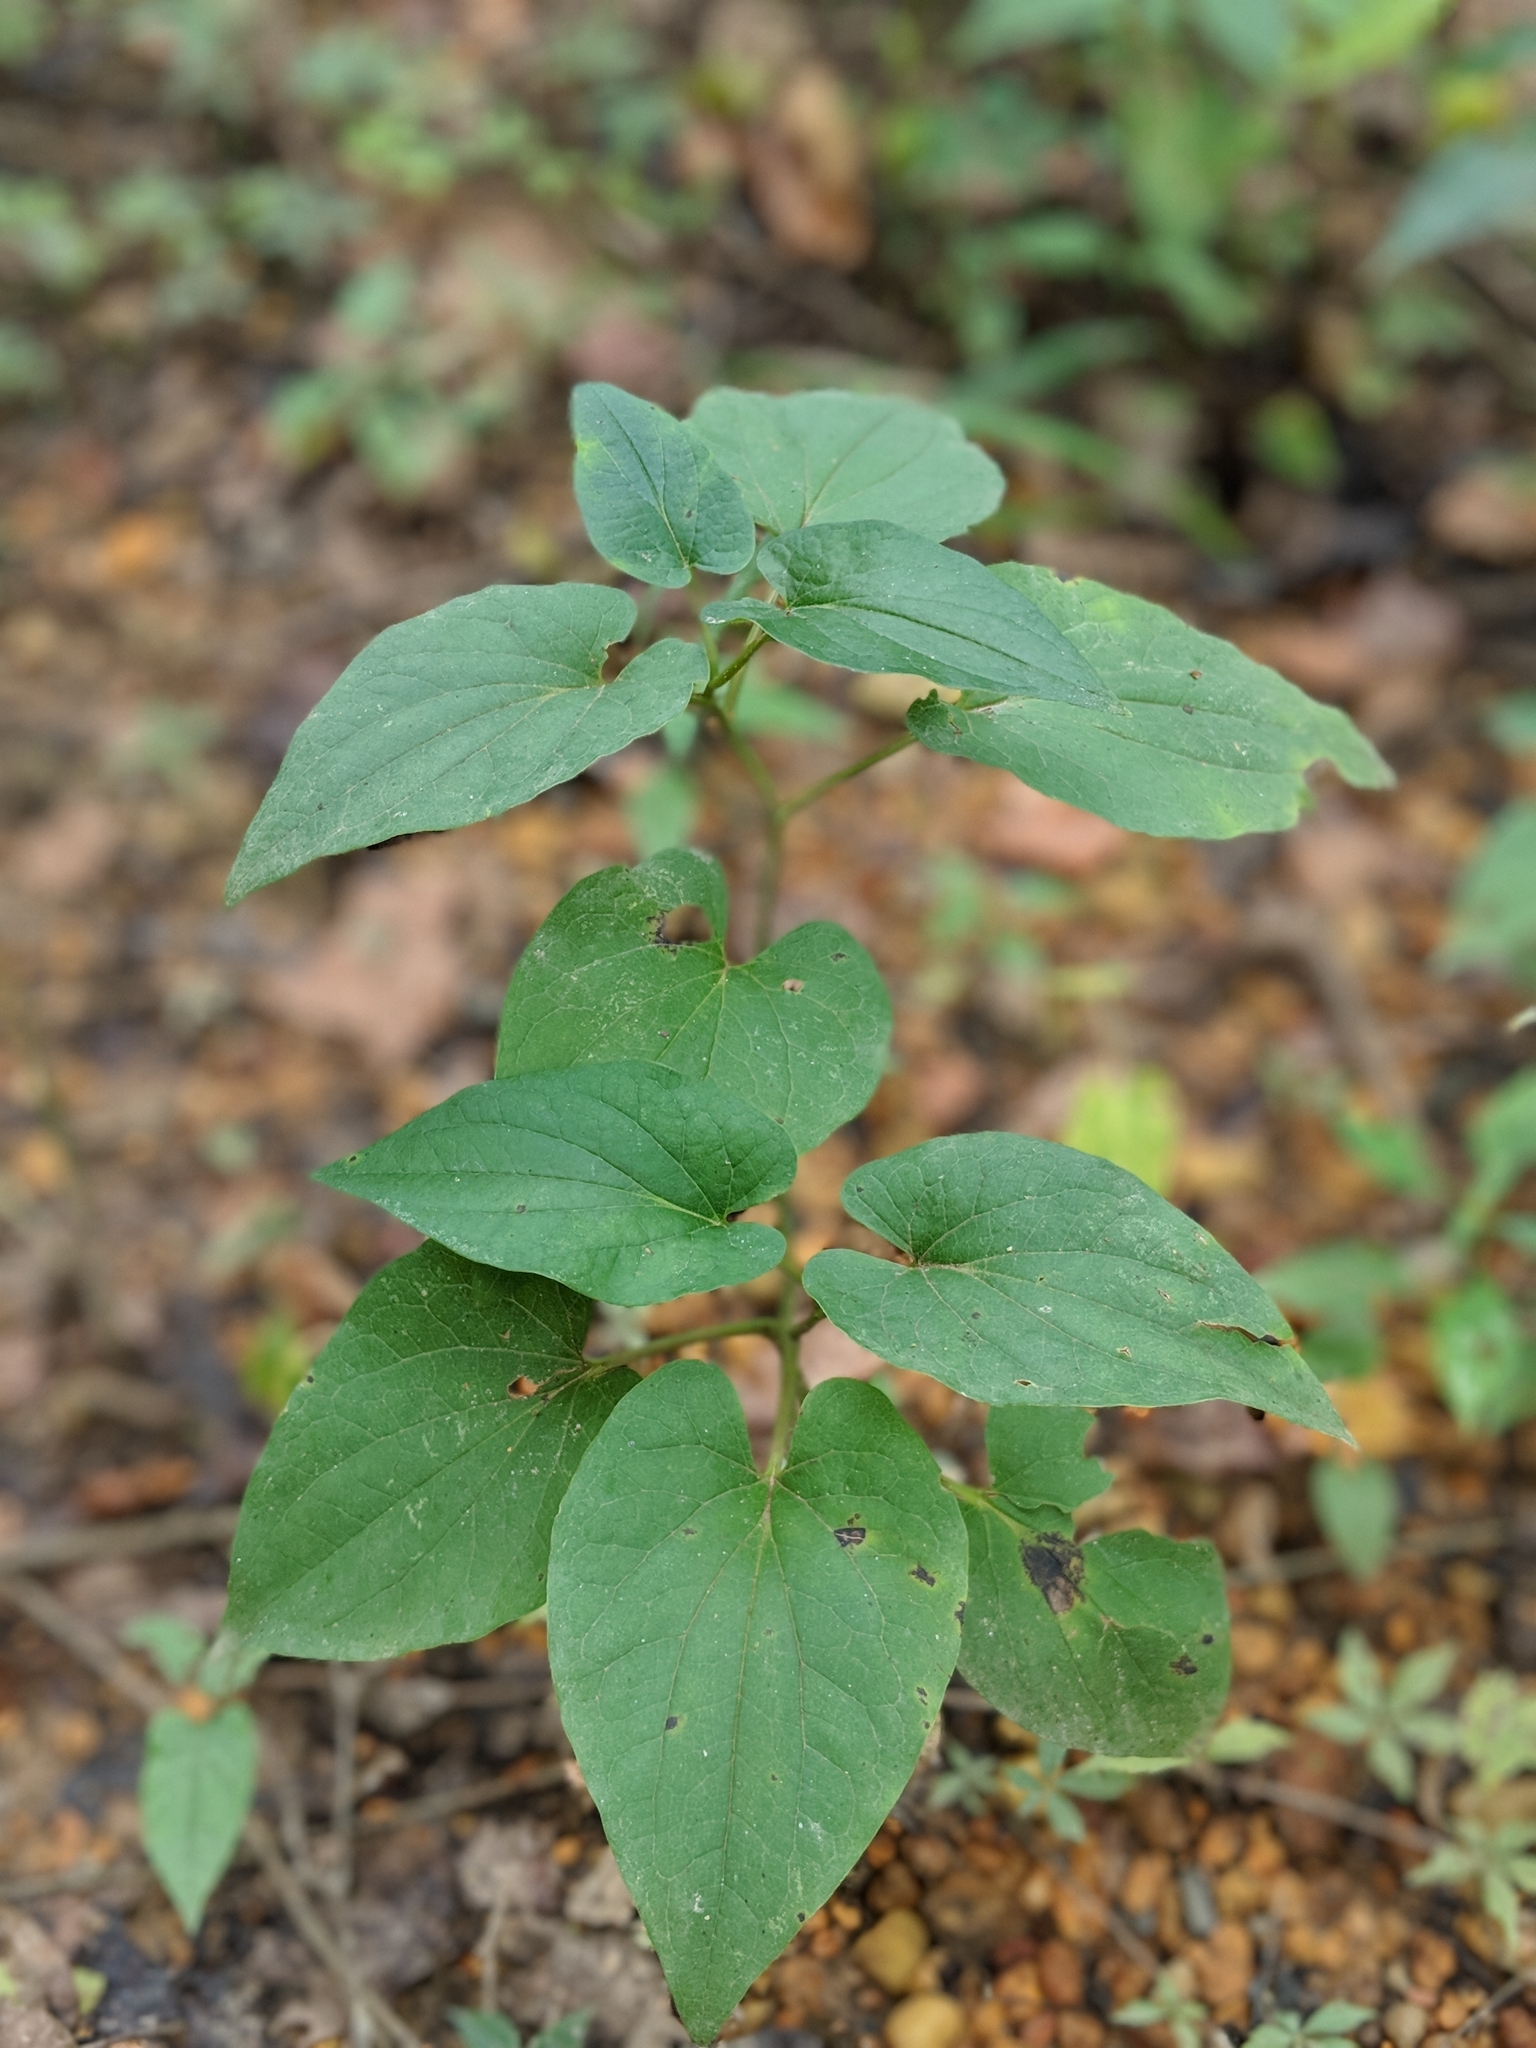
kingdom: Plantae
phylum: Tracheophyta
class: Magnoliopsida
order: Piperales
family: Saururaceae
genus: Saururus
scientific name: Saururus cernuus
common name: Lizard's-tail
